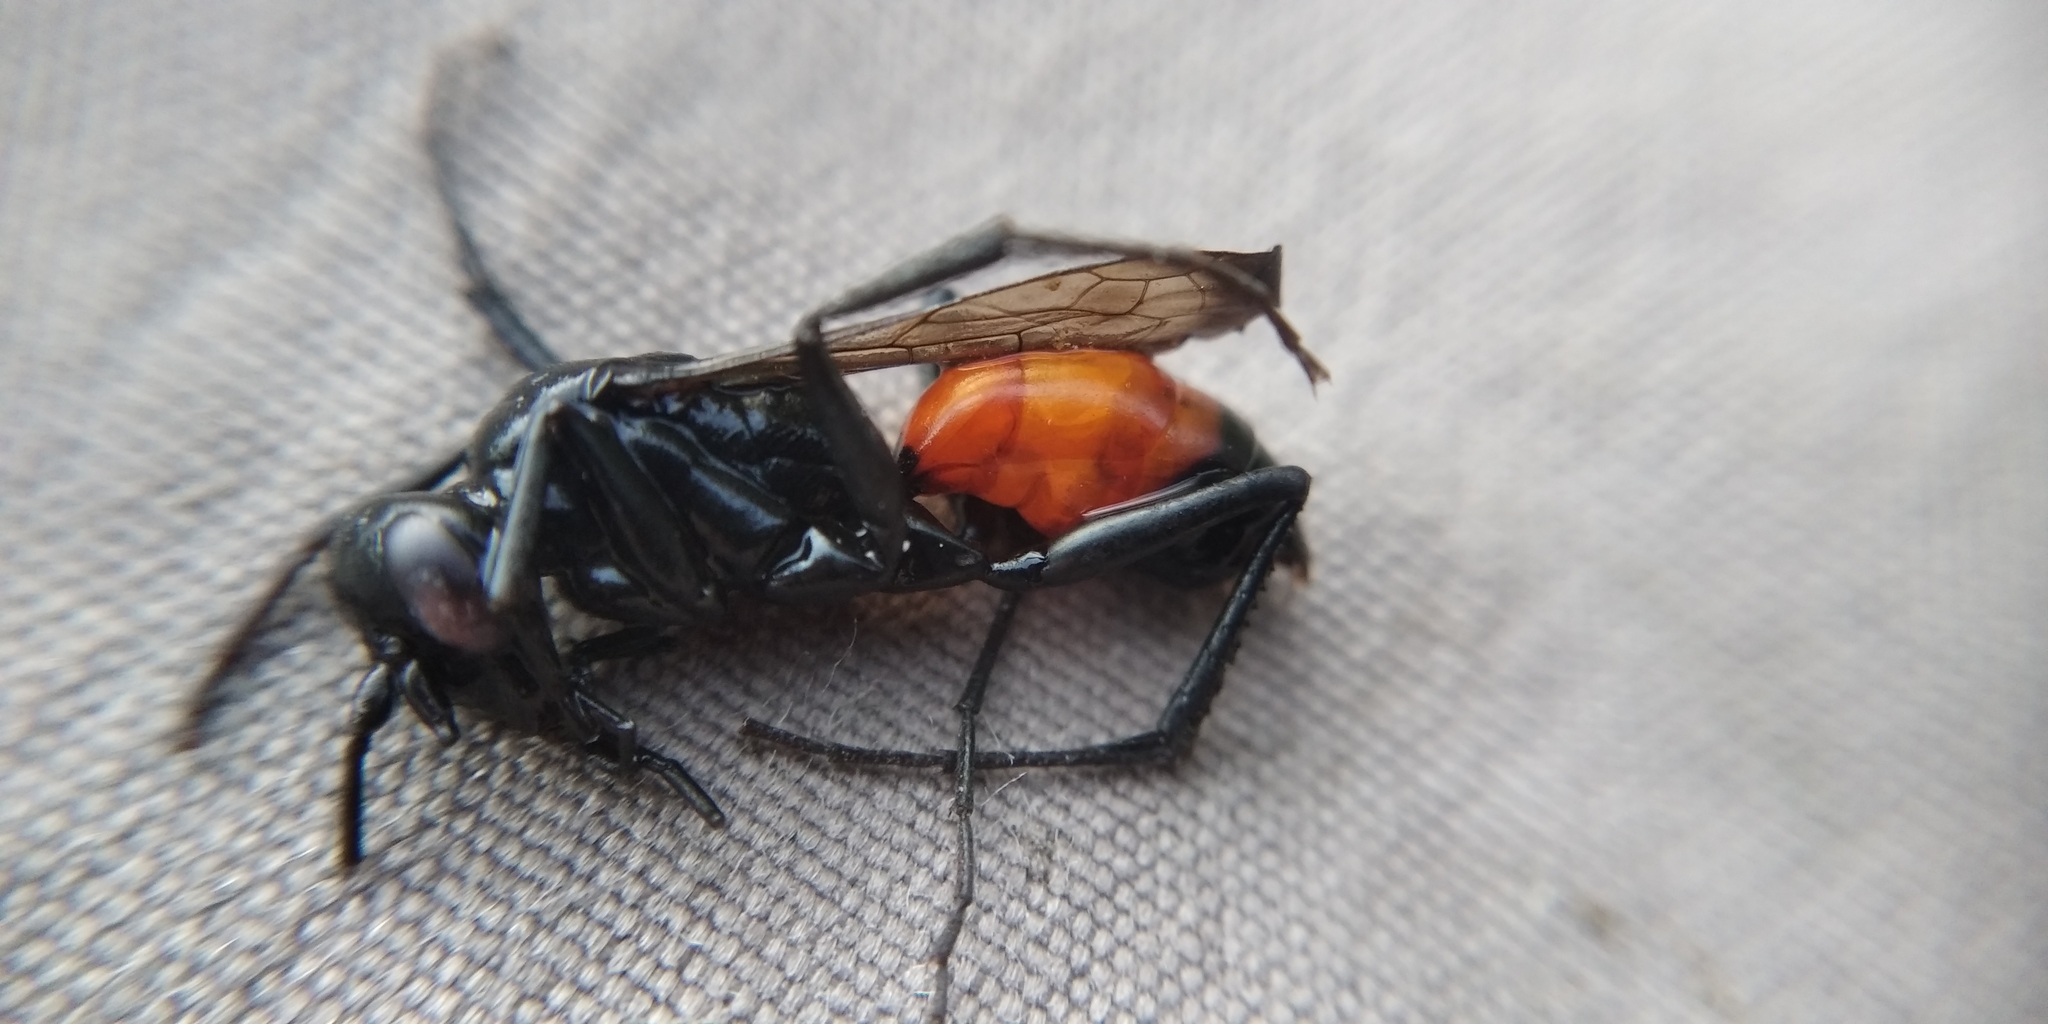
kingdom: Animalia
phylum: Arthropoda
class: Insecta
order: Hymenoptera
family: Pompilidae
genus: Anoplius
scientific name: Anoplius infuscatus
